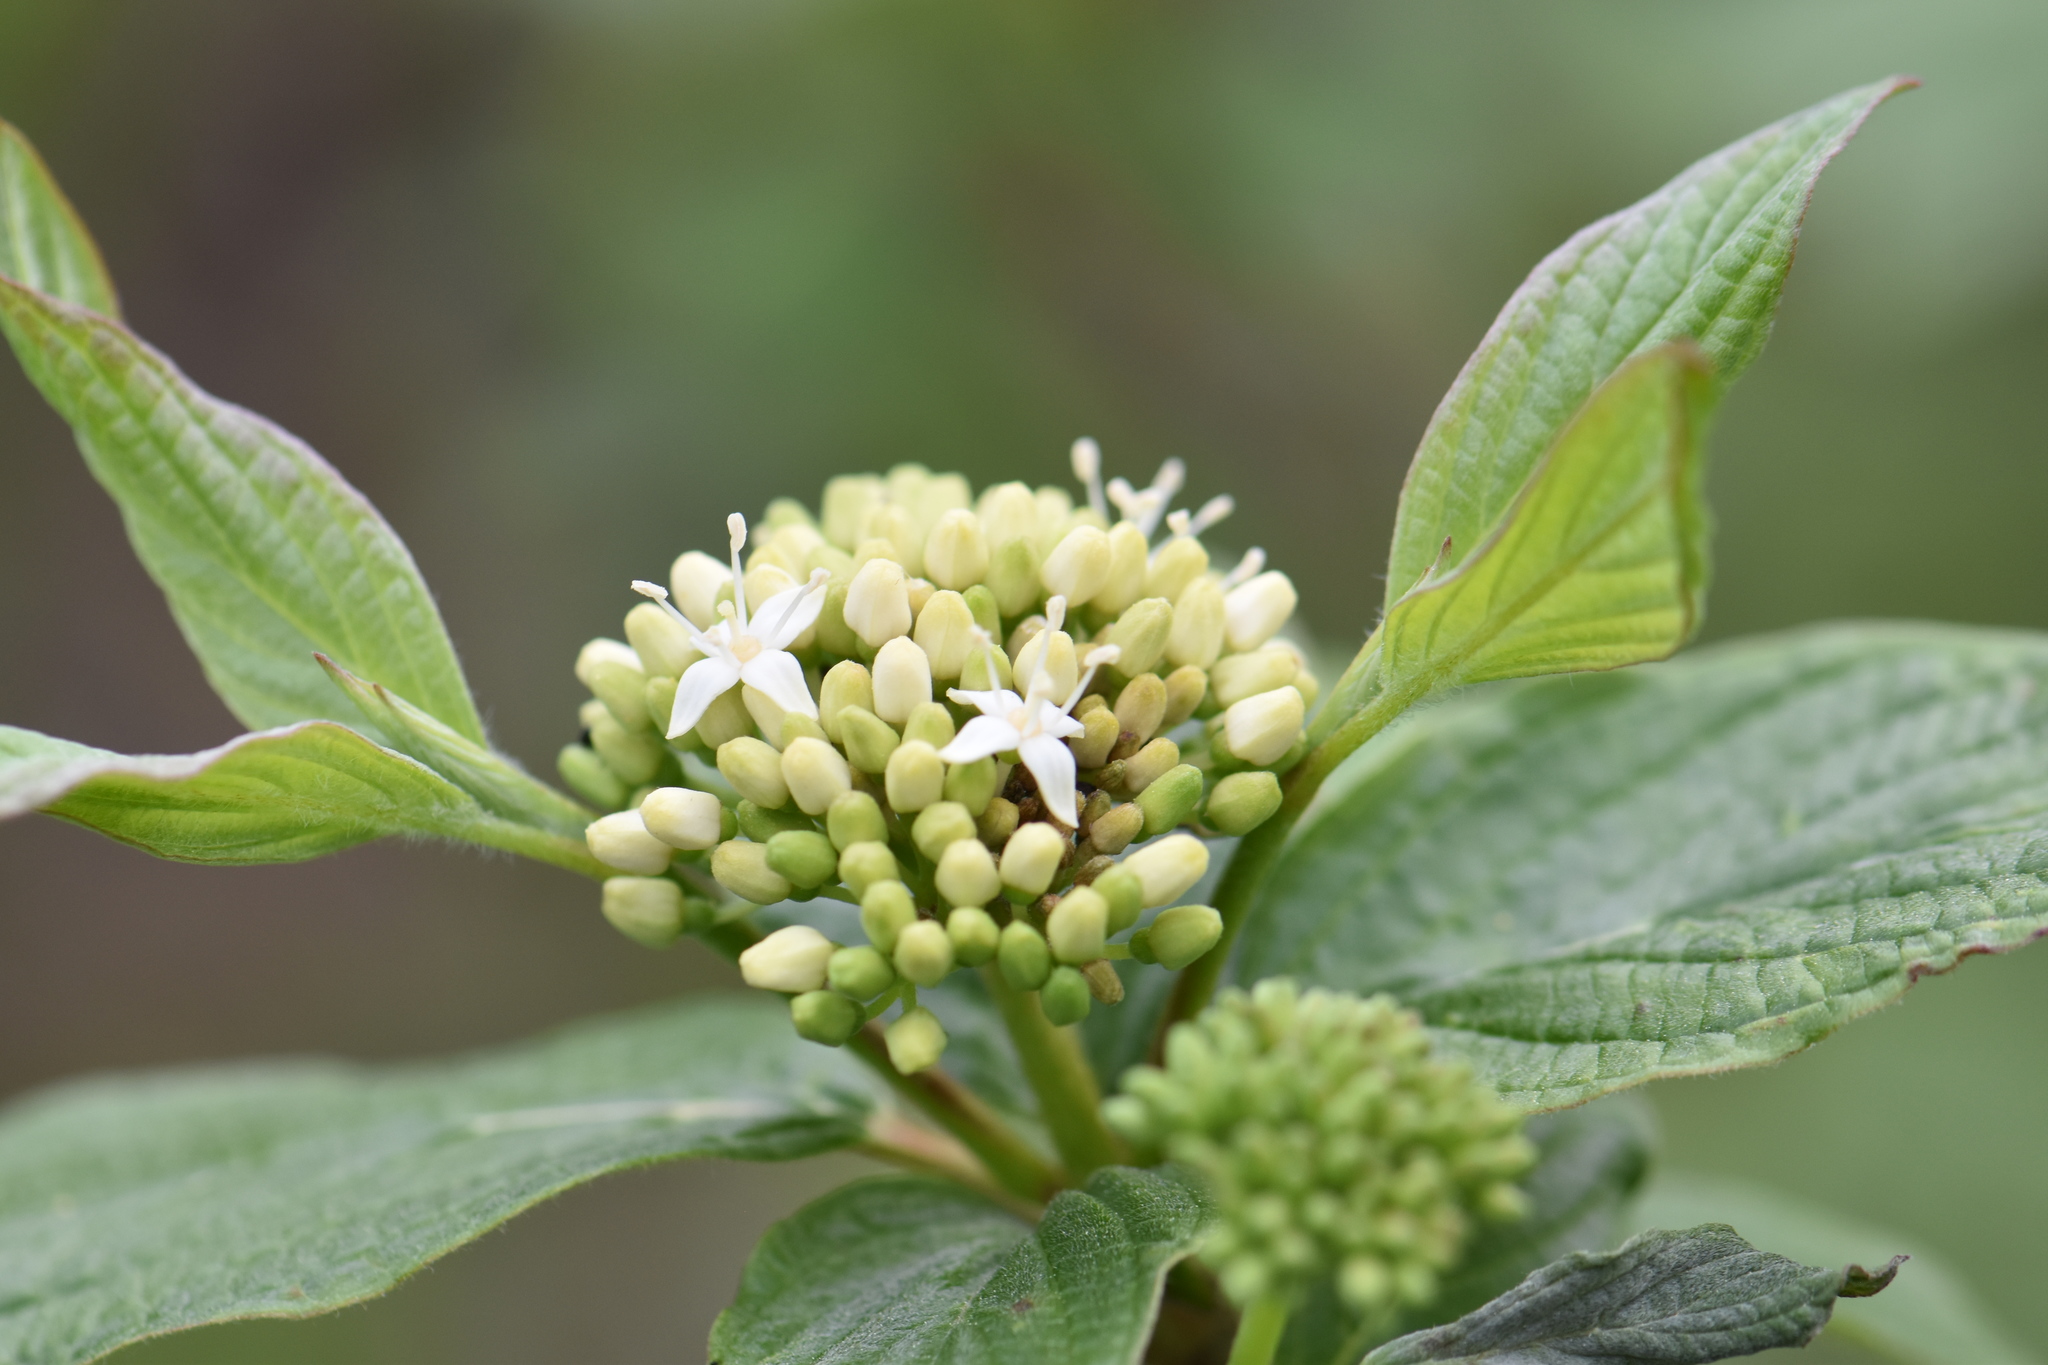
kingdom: Plantae
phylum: Tracheophyta
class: Magnoliopsida
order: Cornales
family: Cornaceae
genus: Cornus
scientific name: Cornus sericea
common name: Red-osier dogwood
